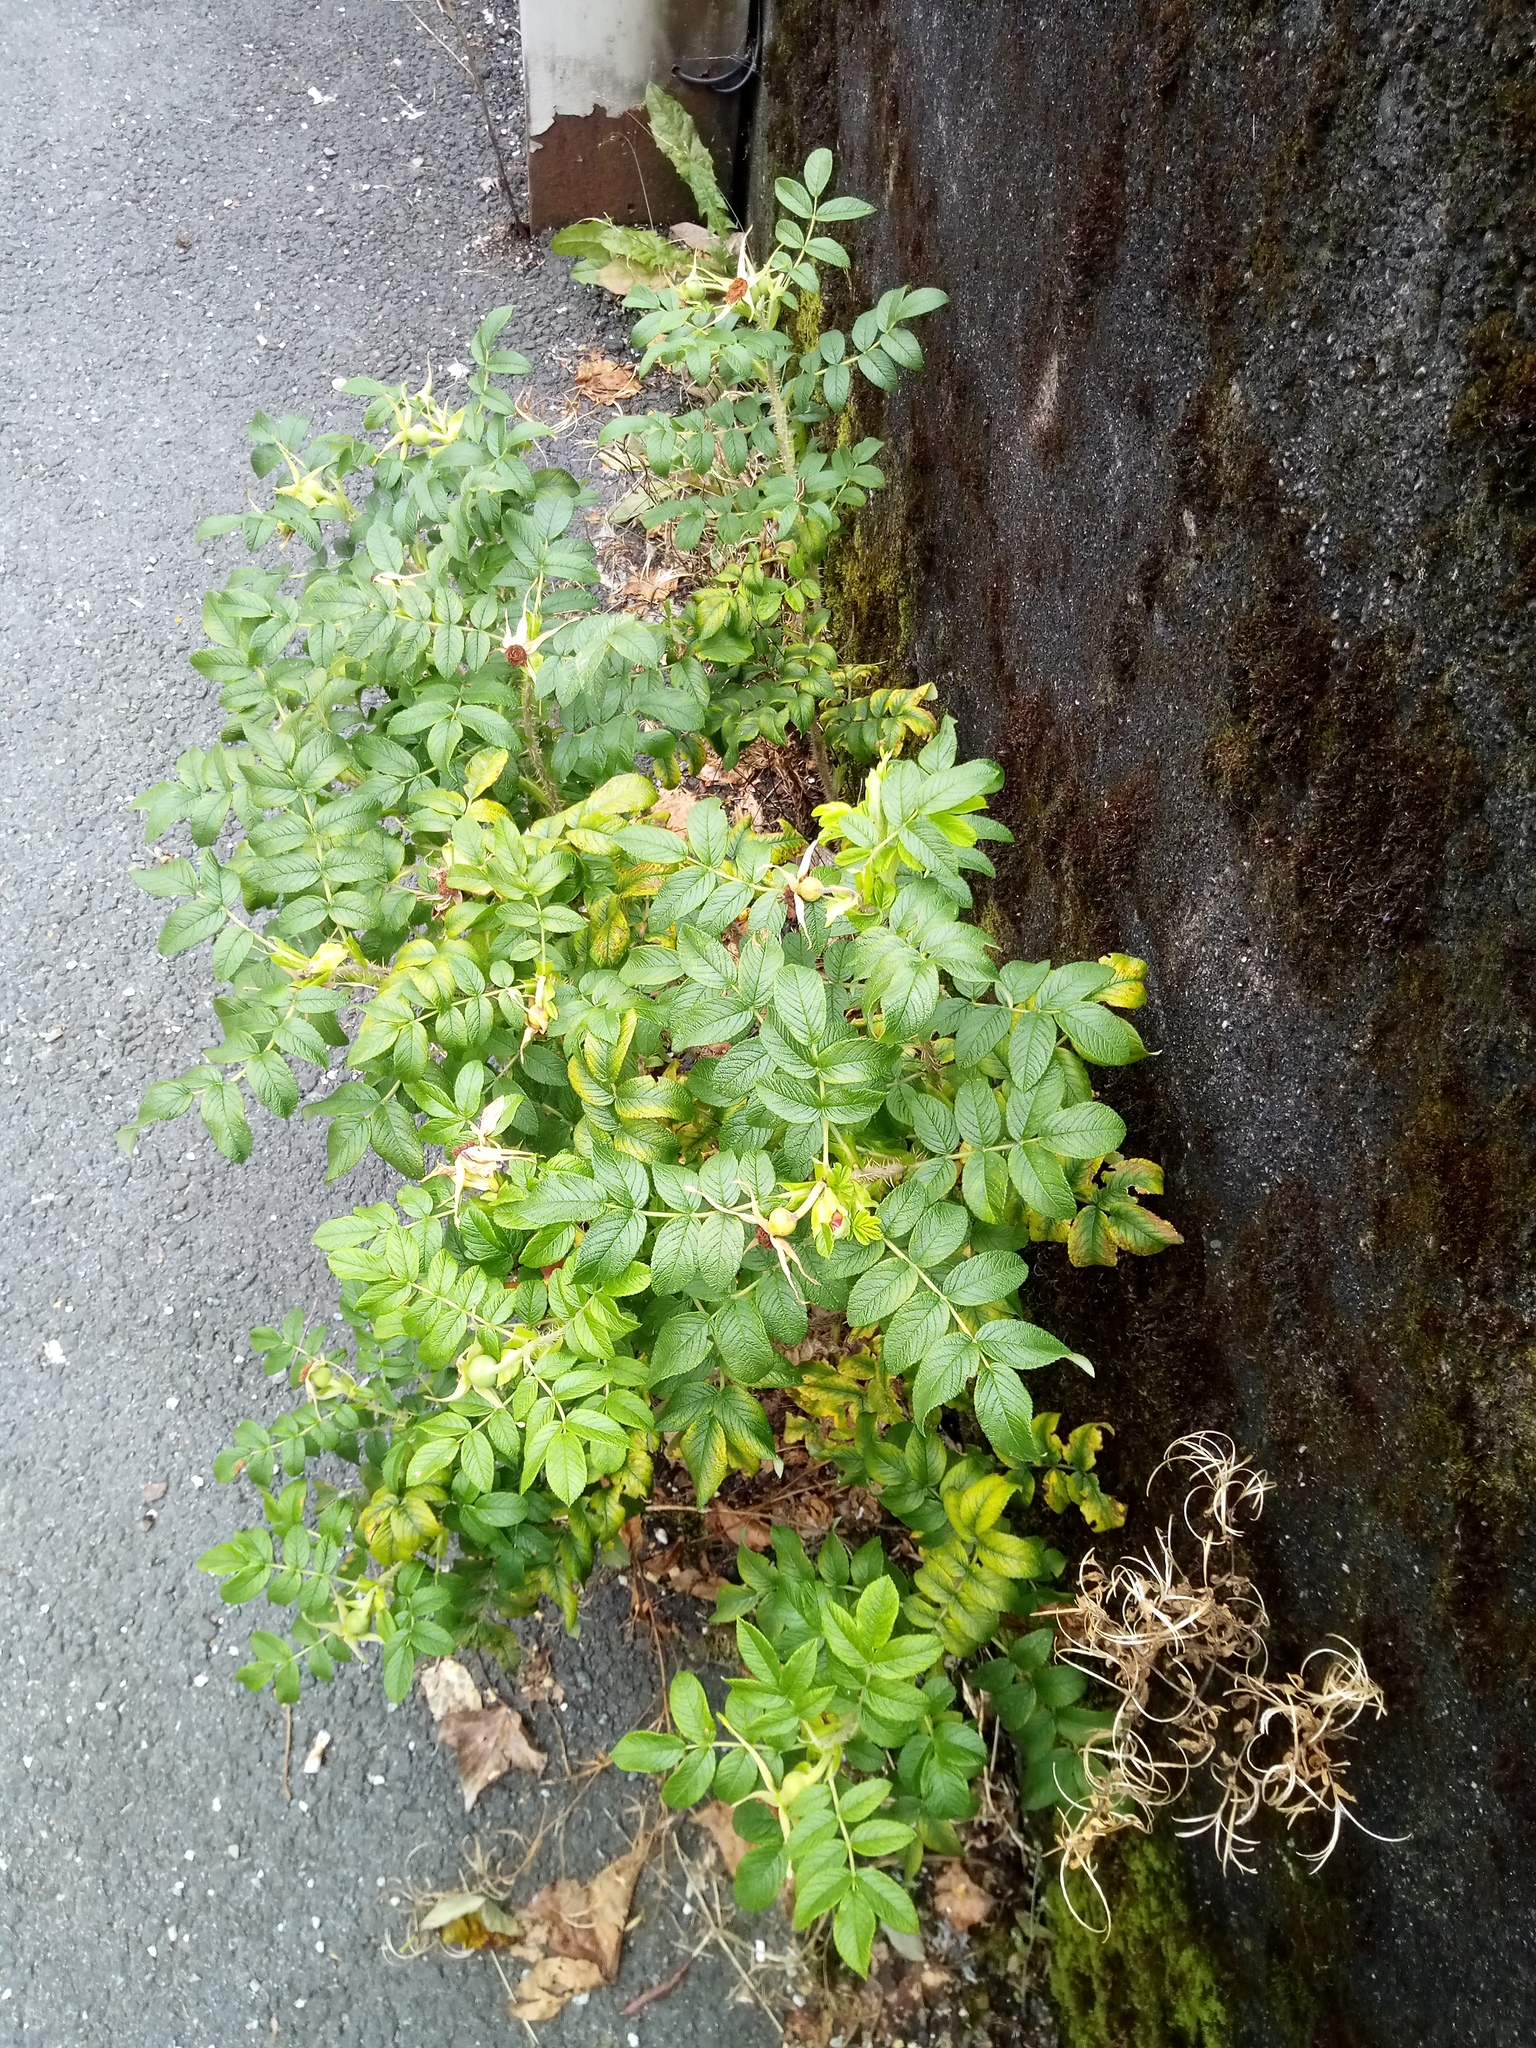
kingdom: Plantae
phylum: Tracheophyta
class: Magnoliopsida
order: Rosales
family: Rosaceae
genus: Rosa
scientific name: Rosa rugosa
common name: Japanese rose
